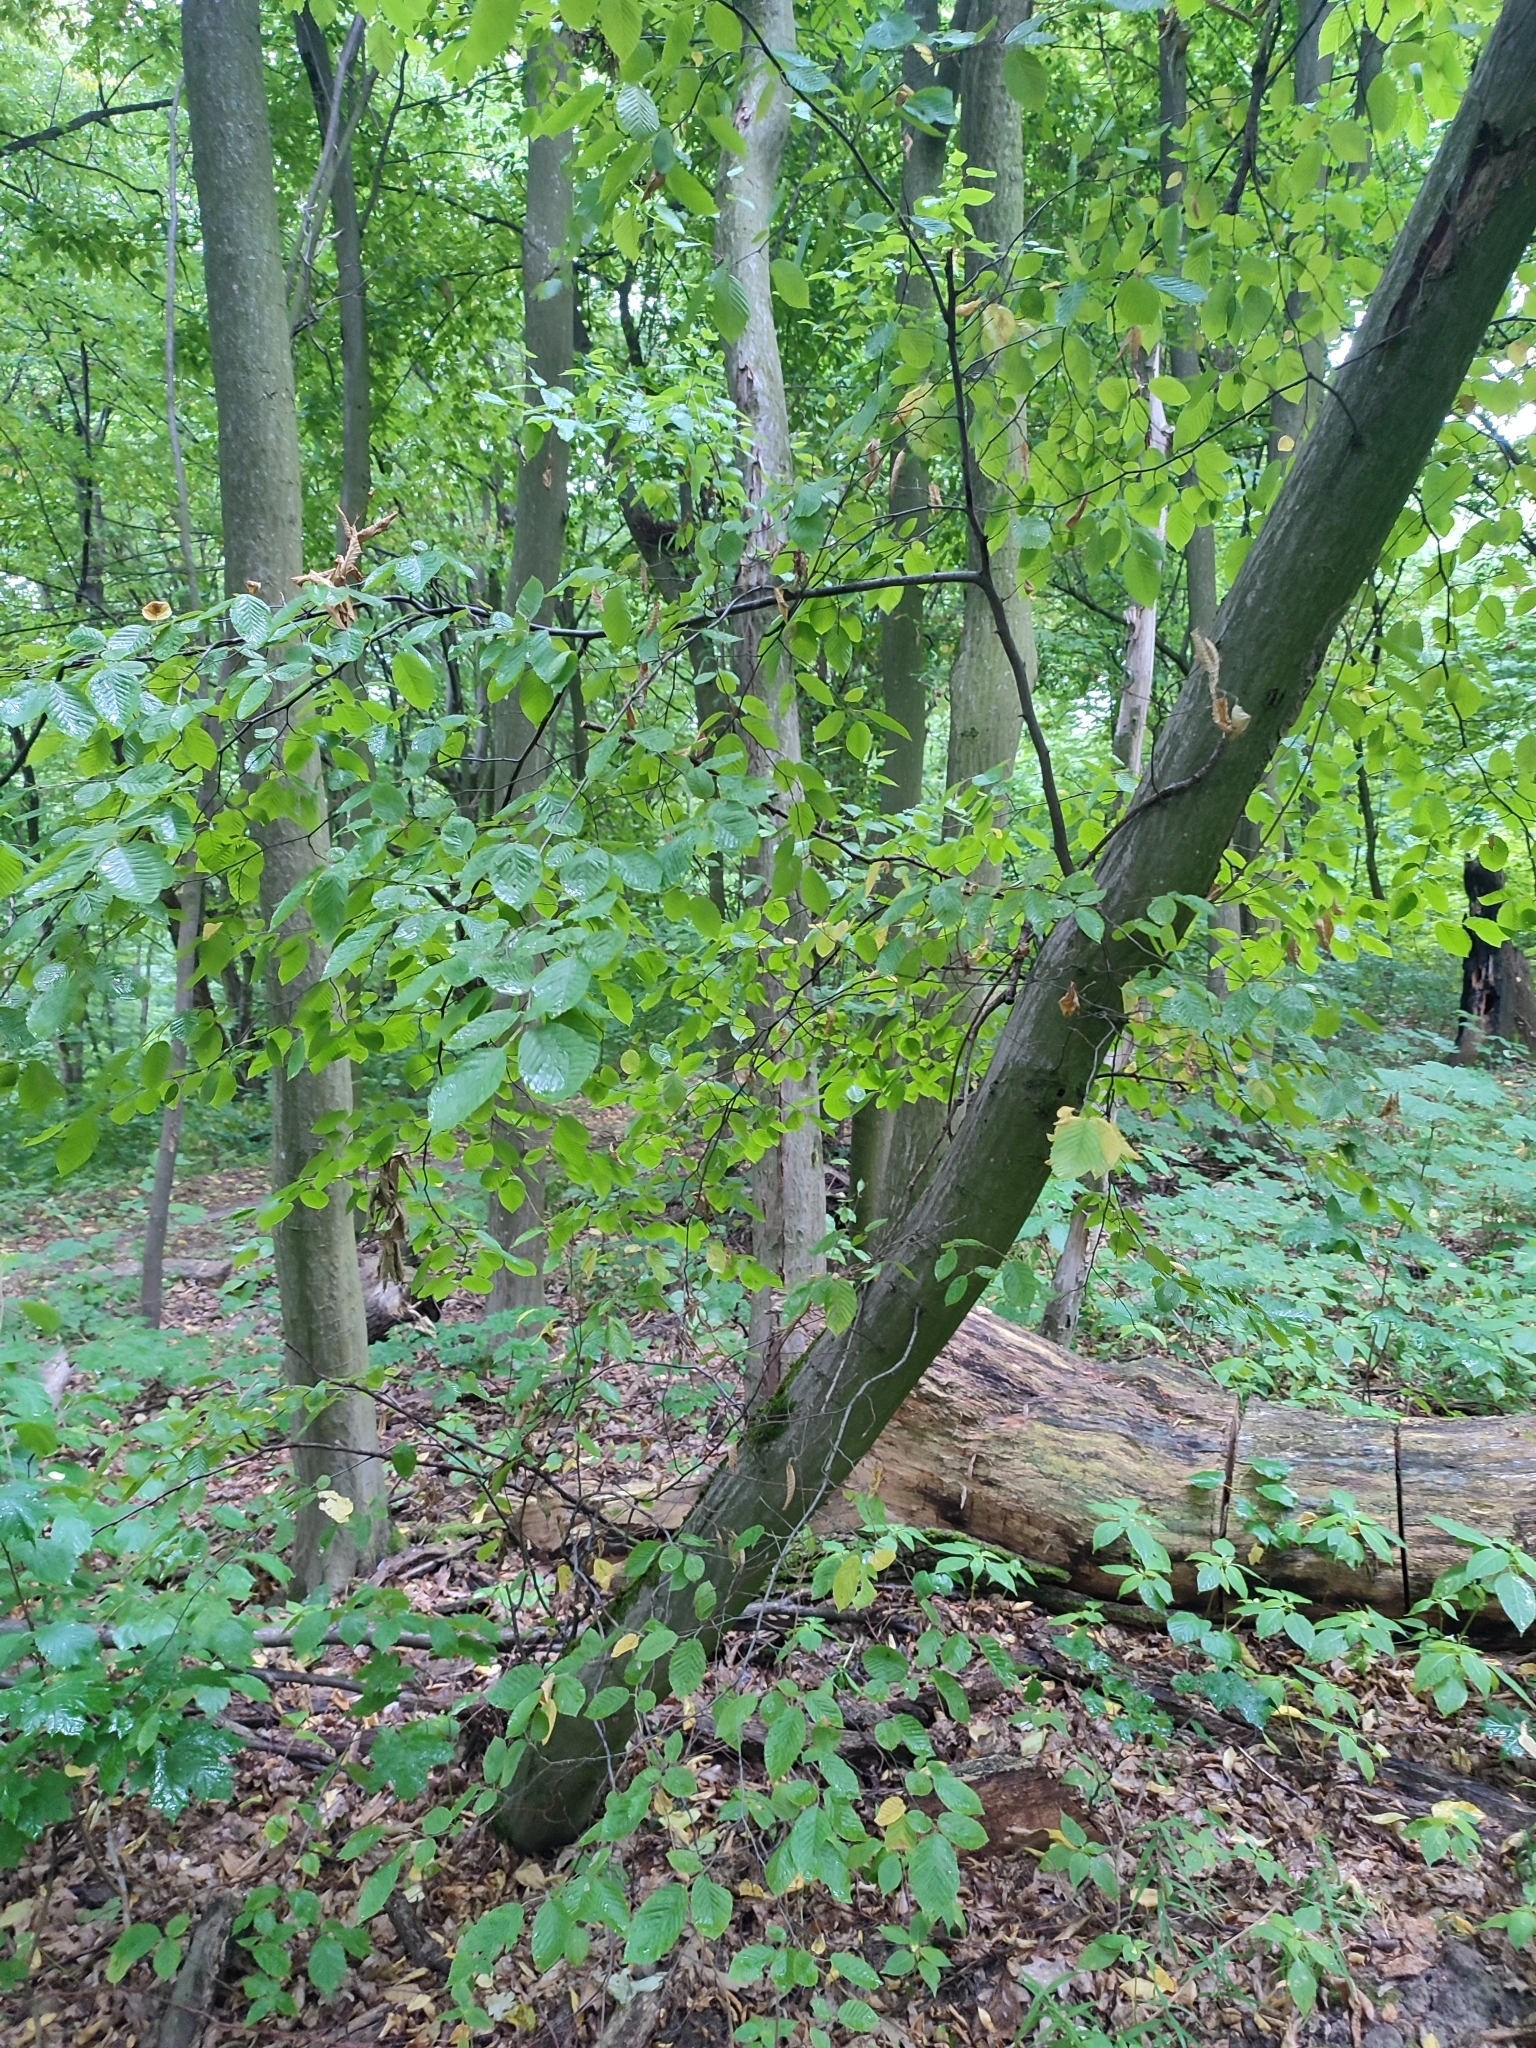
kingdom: Plantae
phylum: Tracheophyta
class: Magnoliopsida
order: Fagales
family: Betulaceae
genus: Carpinus
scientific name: Carpinus betulus
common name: Hornbeam
